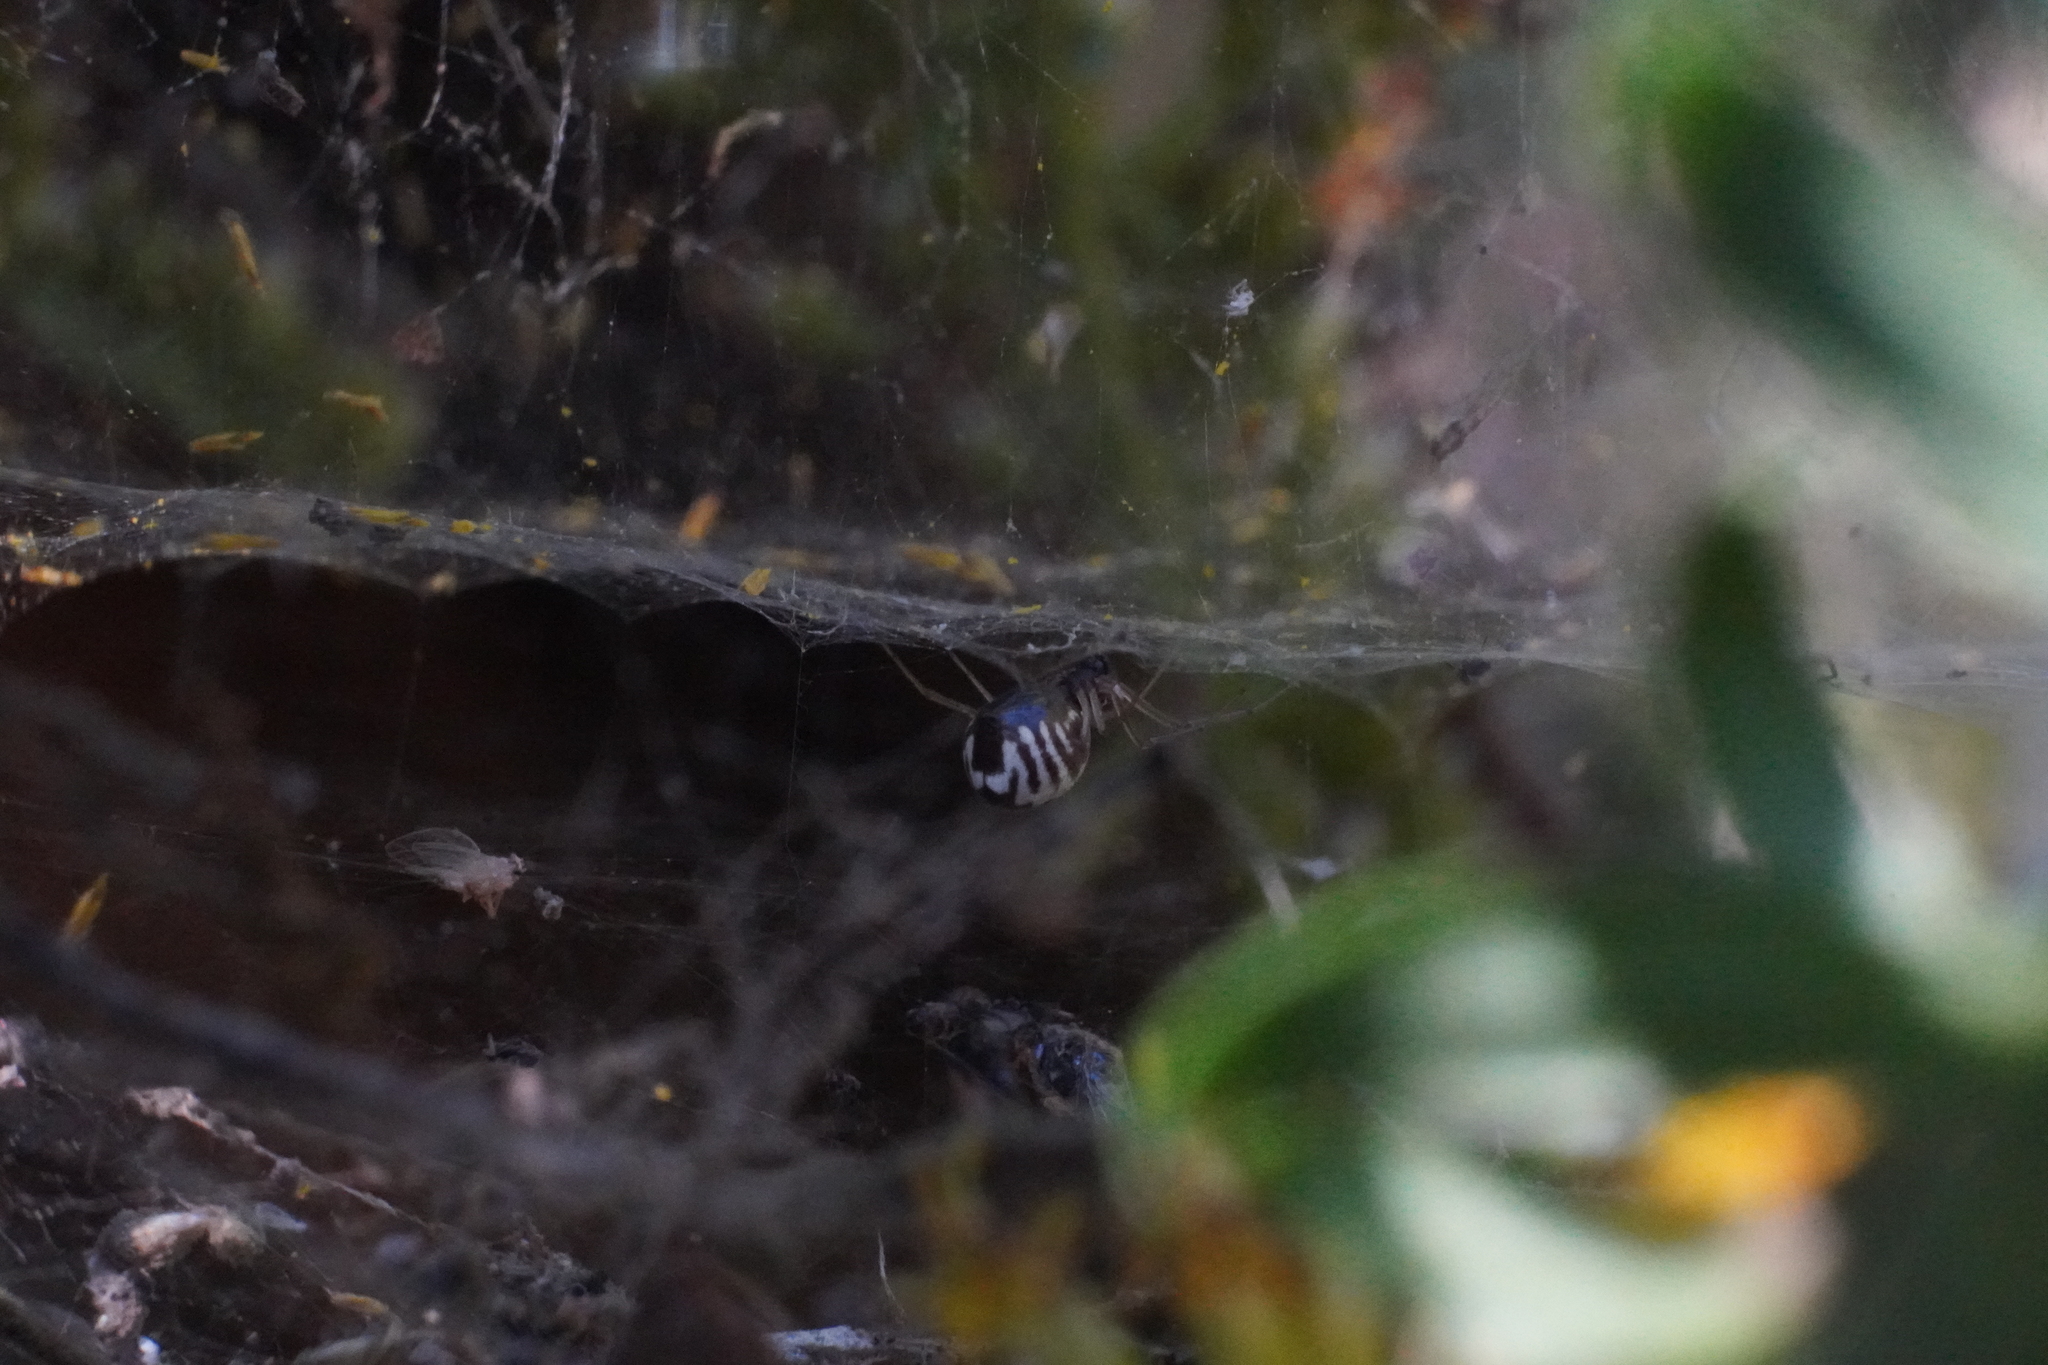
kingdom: Animalia
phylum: Arthropoda
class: Arachnida
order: Araneae
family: Linyphiidae
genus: Frontinella
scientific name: Frontinella pyramitela
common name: Bowl-and-doily spider
